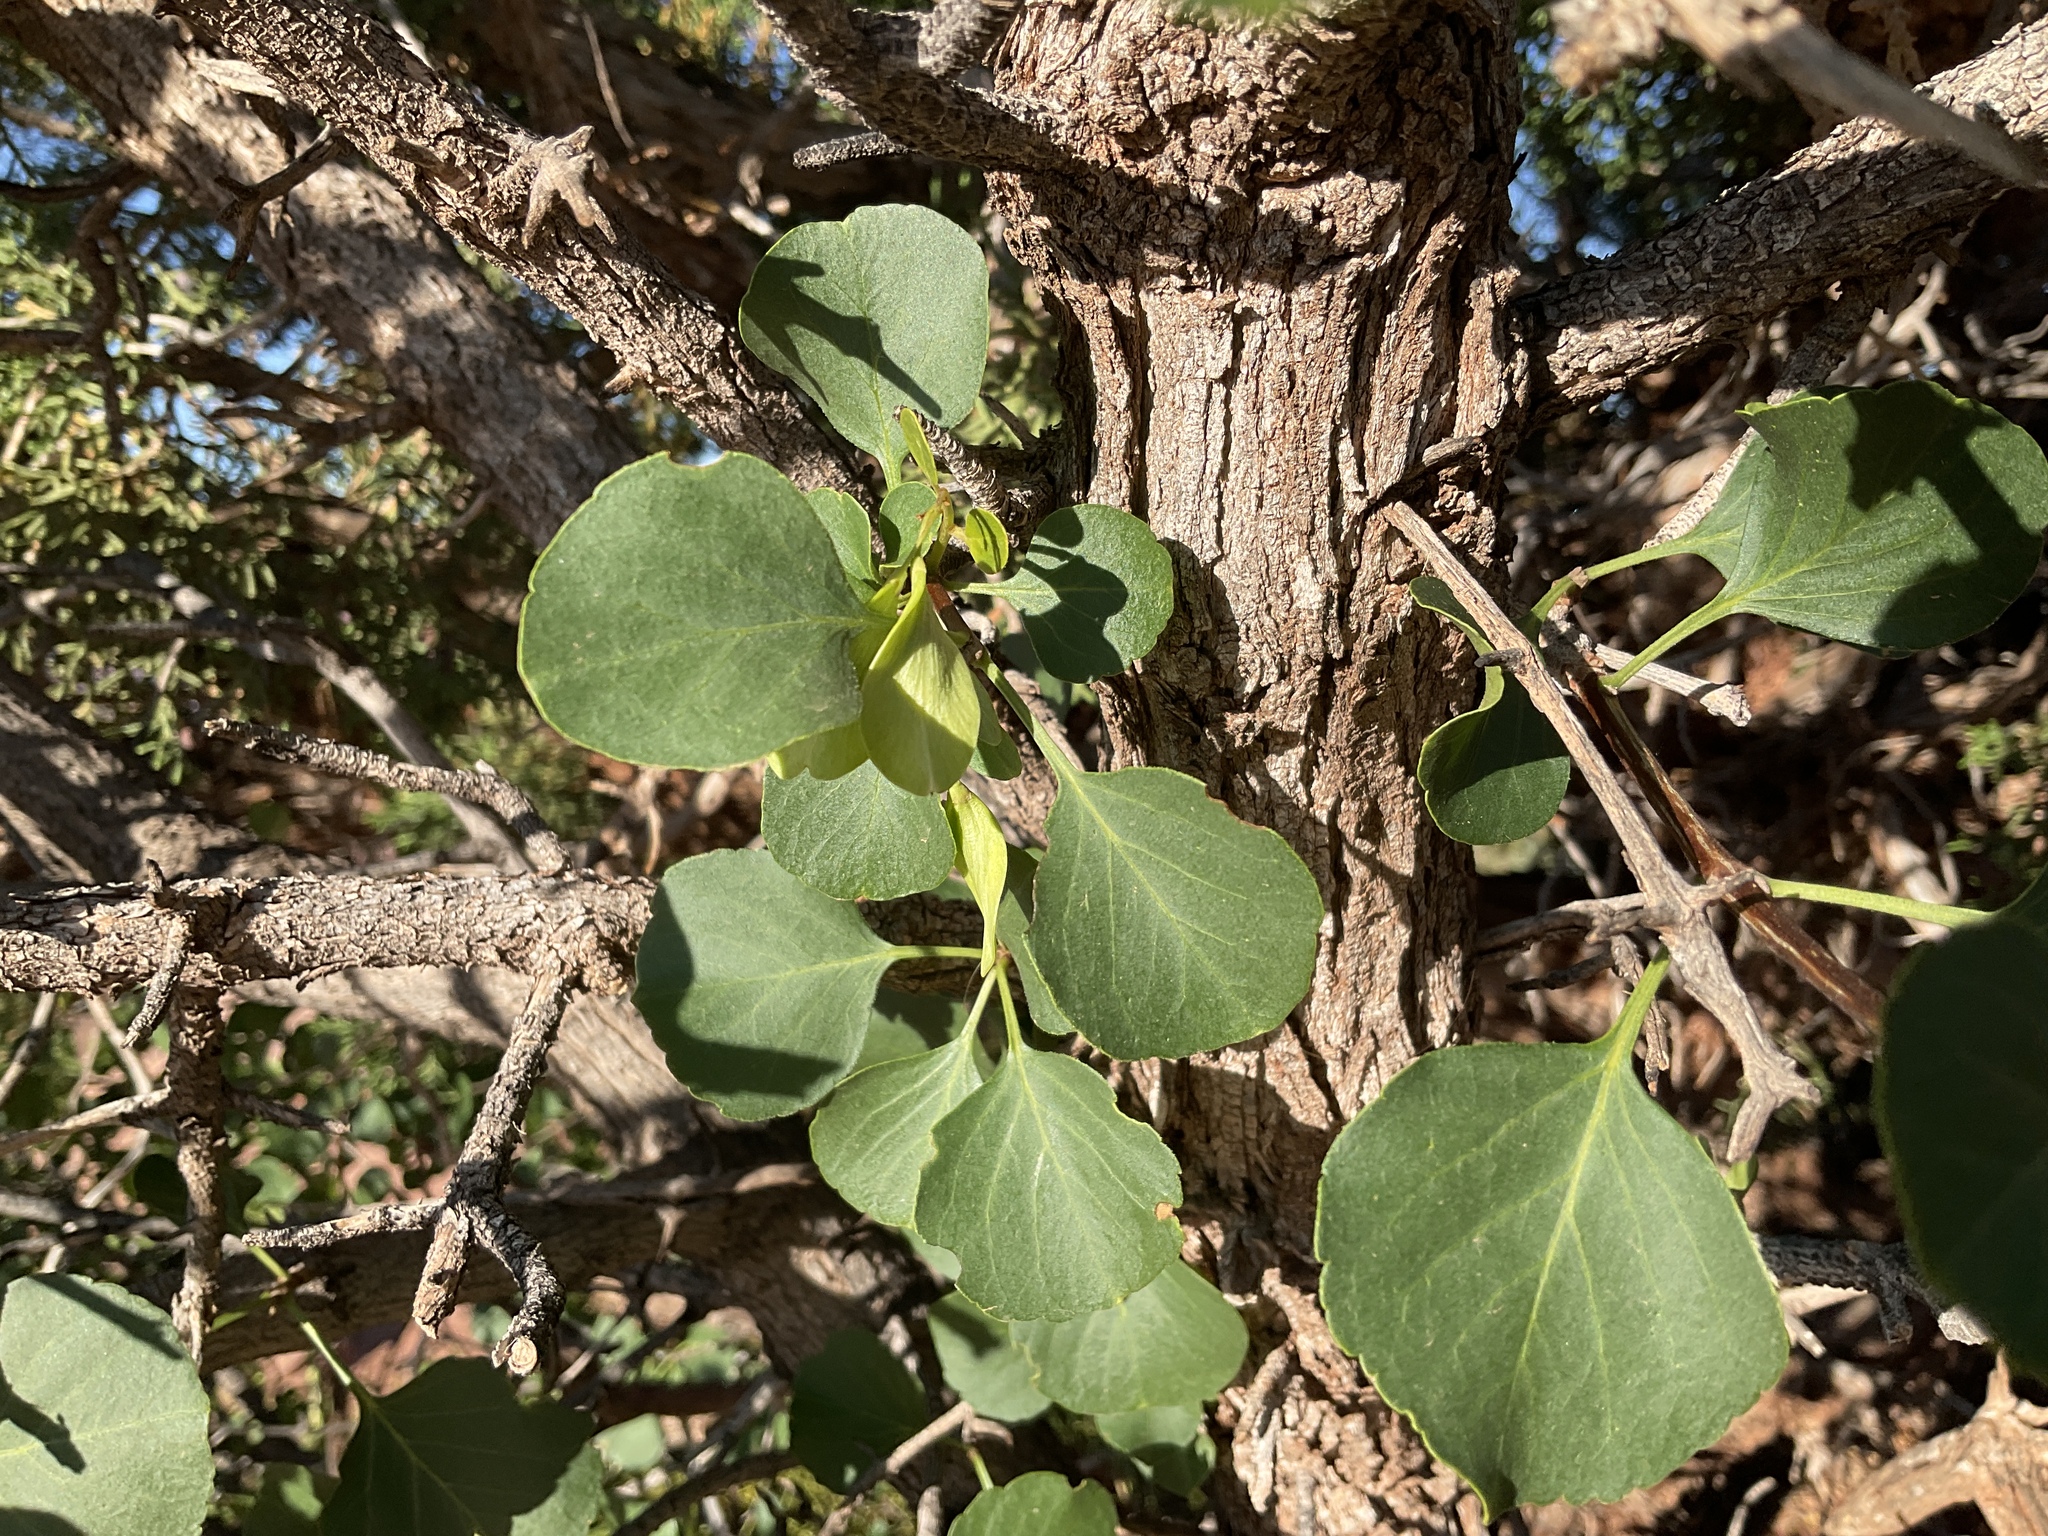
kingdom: Plantae
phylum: Tracheophyta
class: Magnoliopsida
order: Lamiales
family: Oleaceae
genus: Fraxinus
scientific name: Fraxinus anomala
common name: Utah ash
